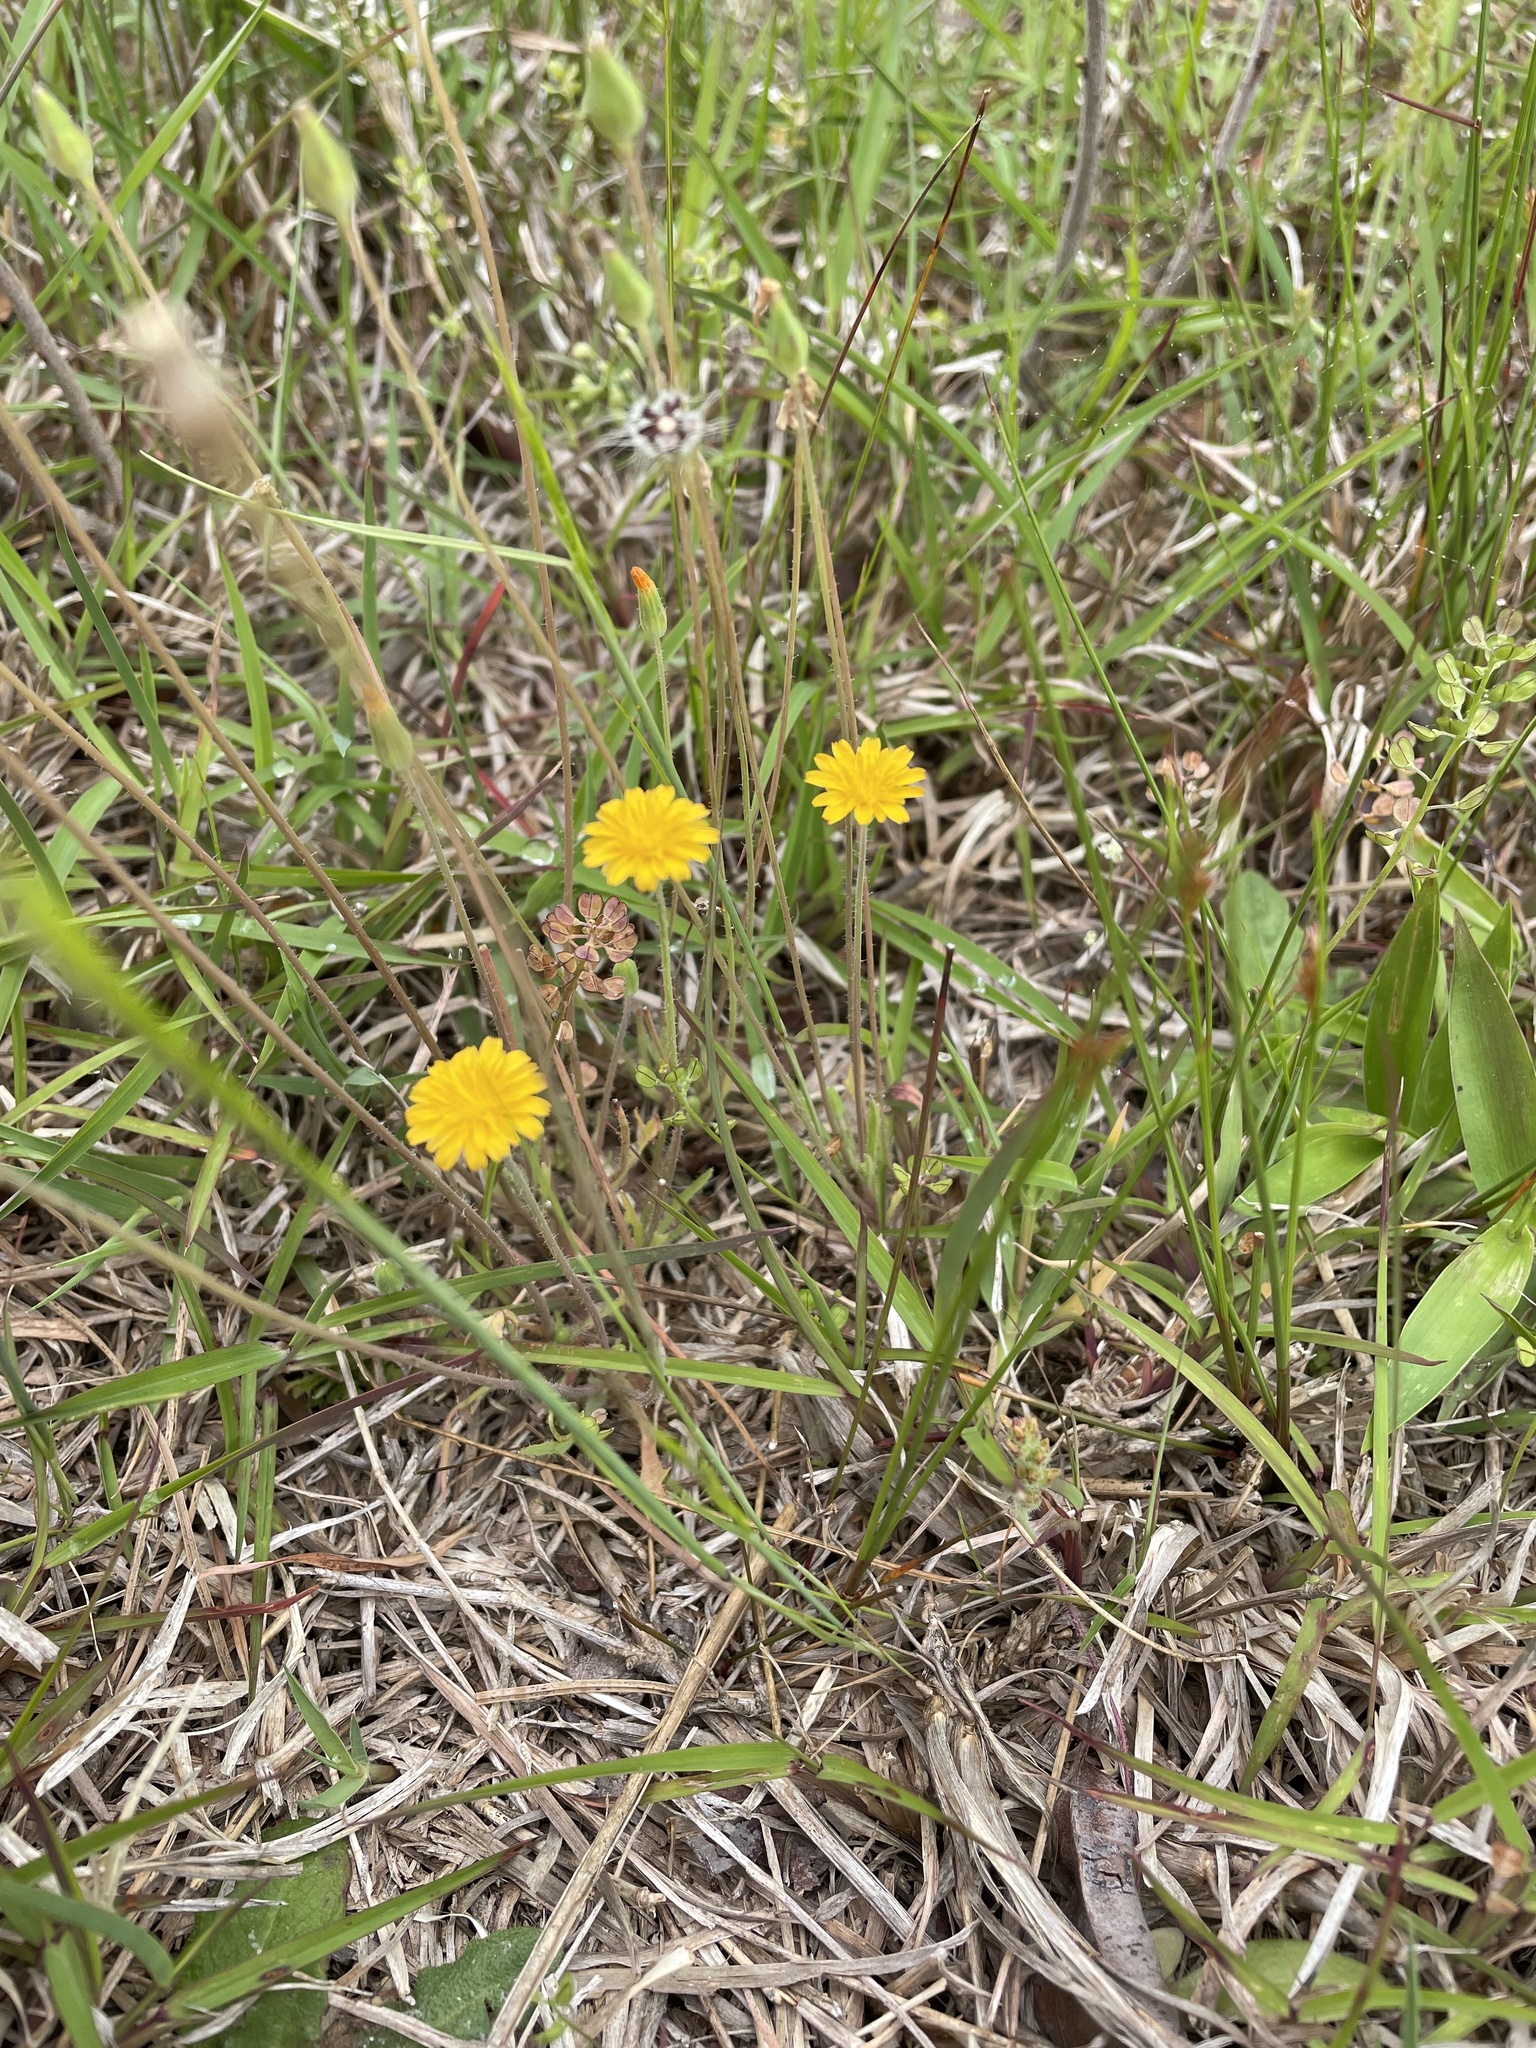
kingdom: Plantae
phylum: Tracheophyta
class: Magnoliopsida
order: Asterales
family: Asteraceae
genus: Krigia
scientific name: Krigia virginica
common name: Virginia dwarf-dandelion
